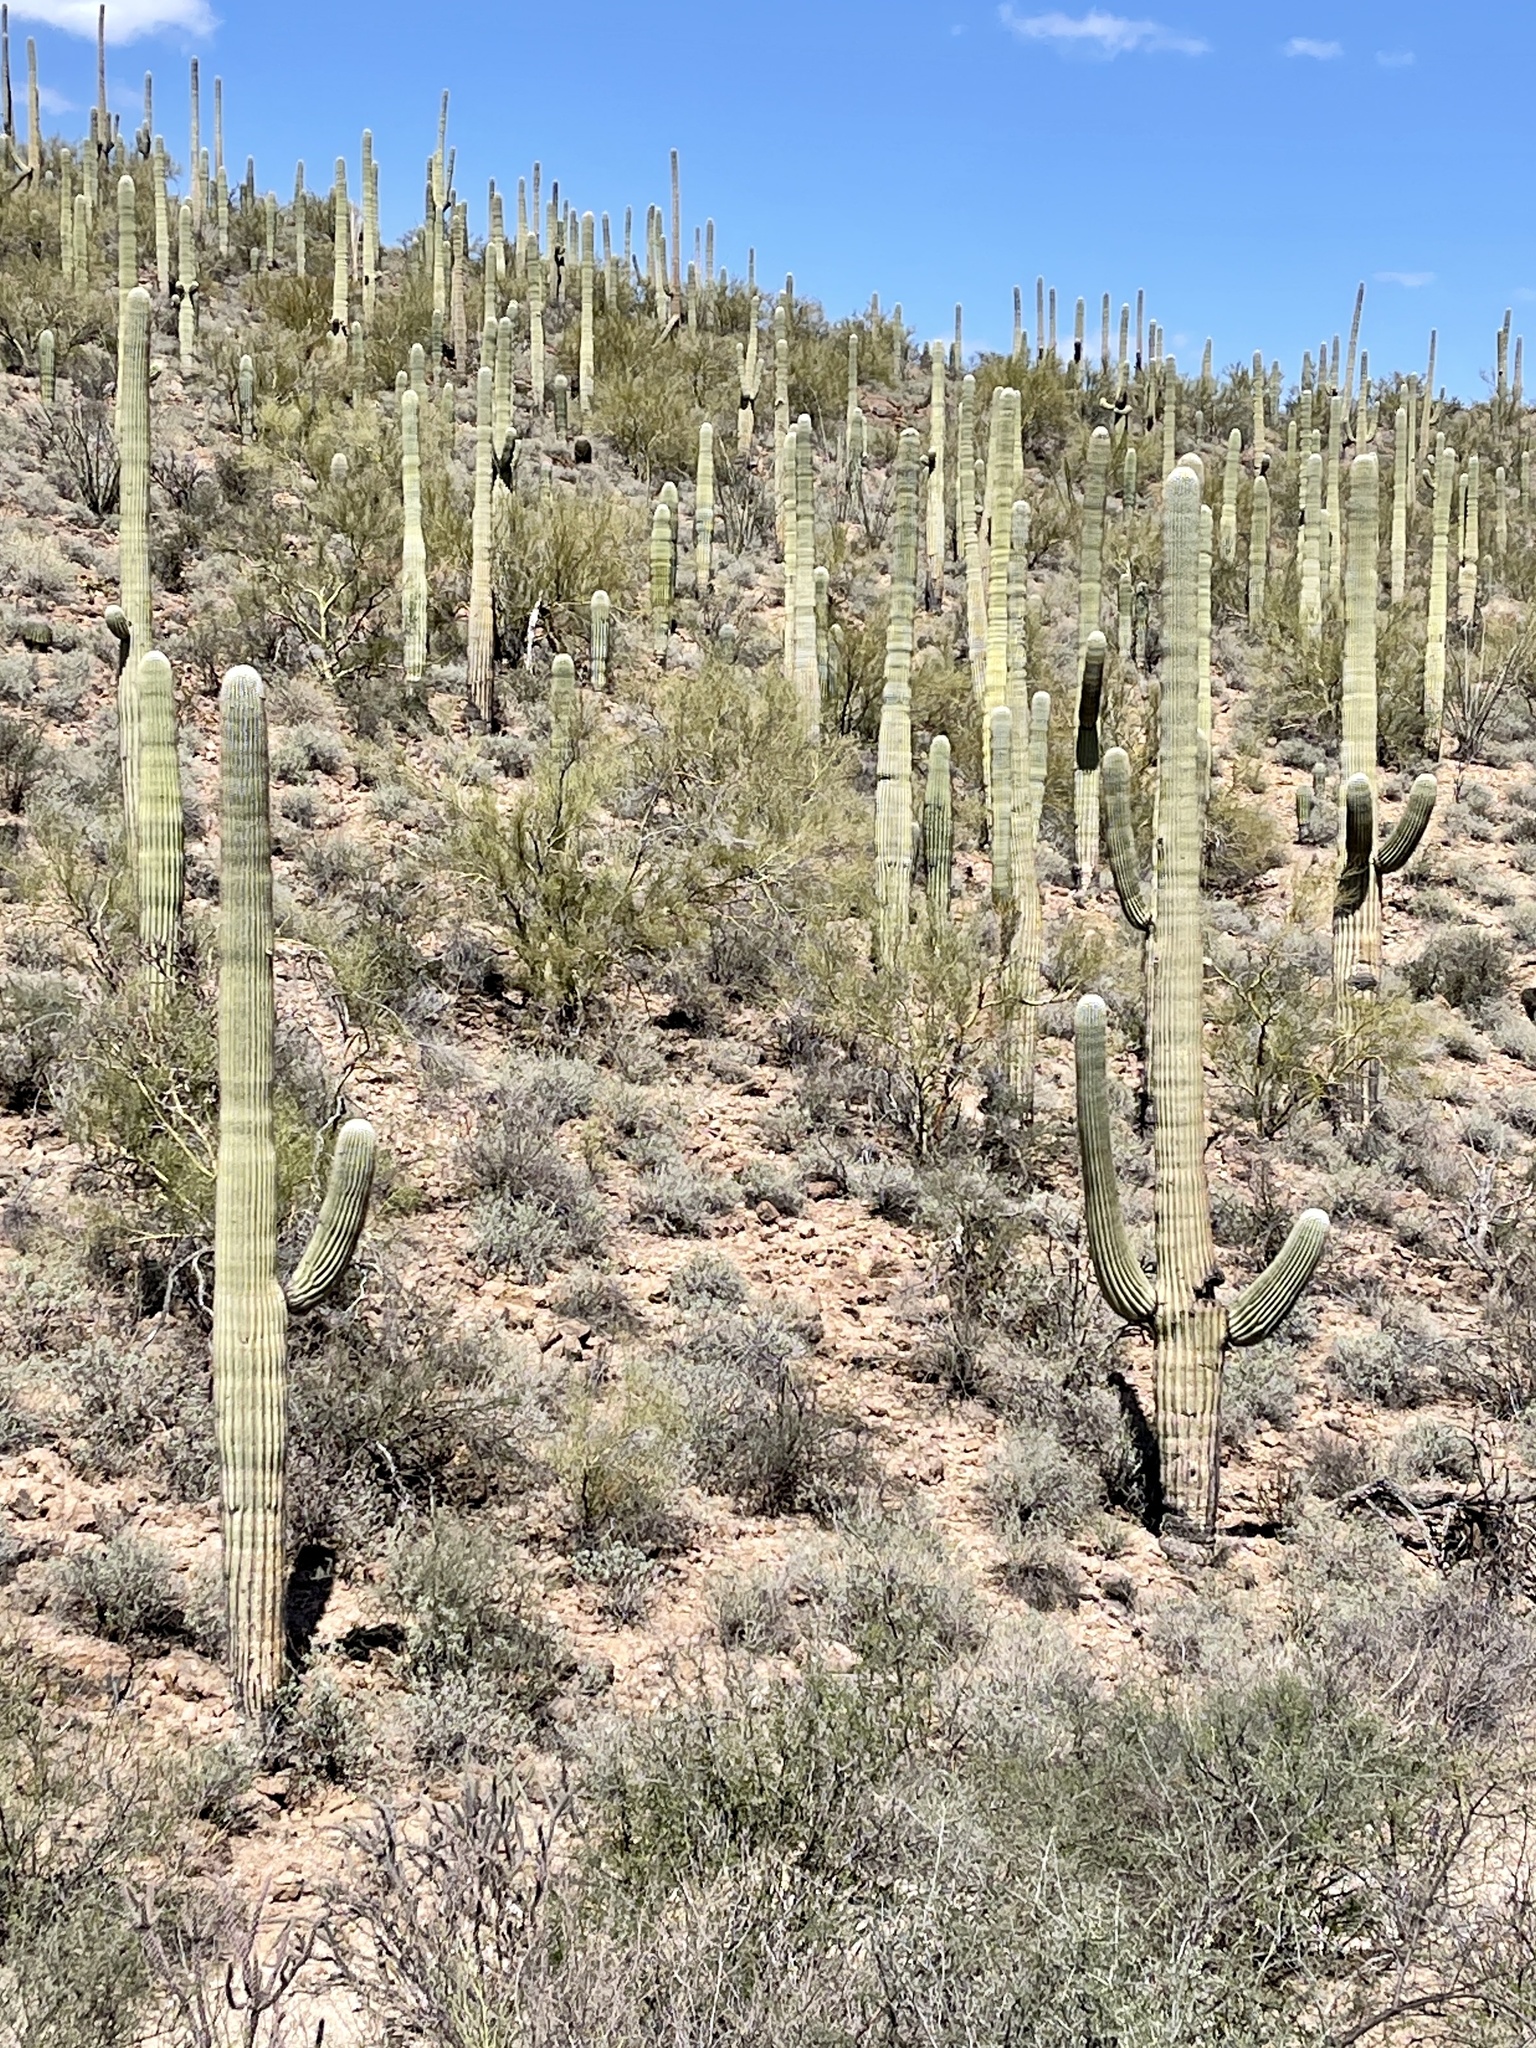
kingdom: Plantae
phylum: Tracheophyta
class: Magnoliopsida
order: Caryophyllales
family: Cactaceae
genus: Carnegiea
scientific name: Carnegiea gigantea
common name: Saguaro
